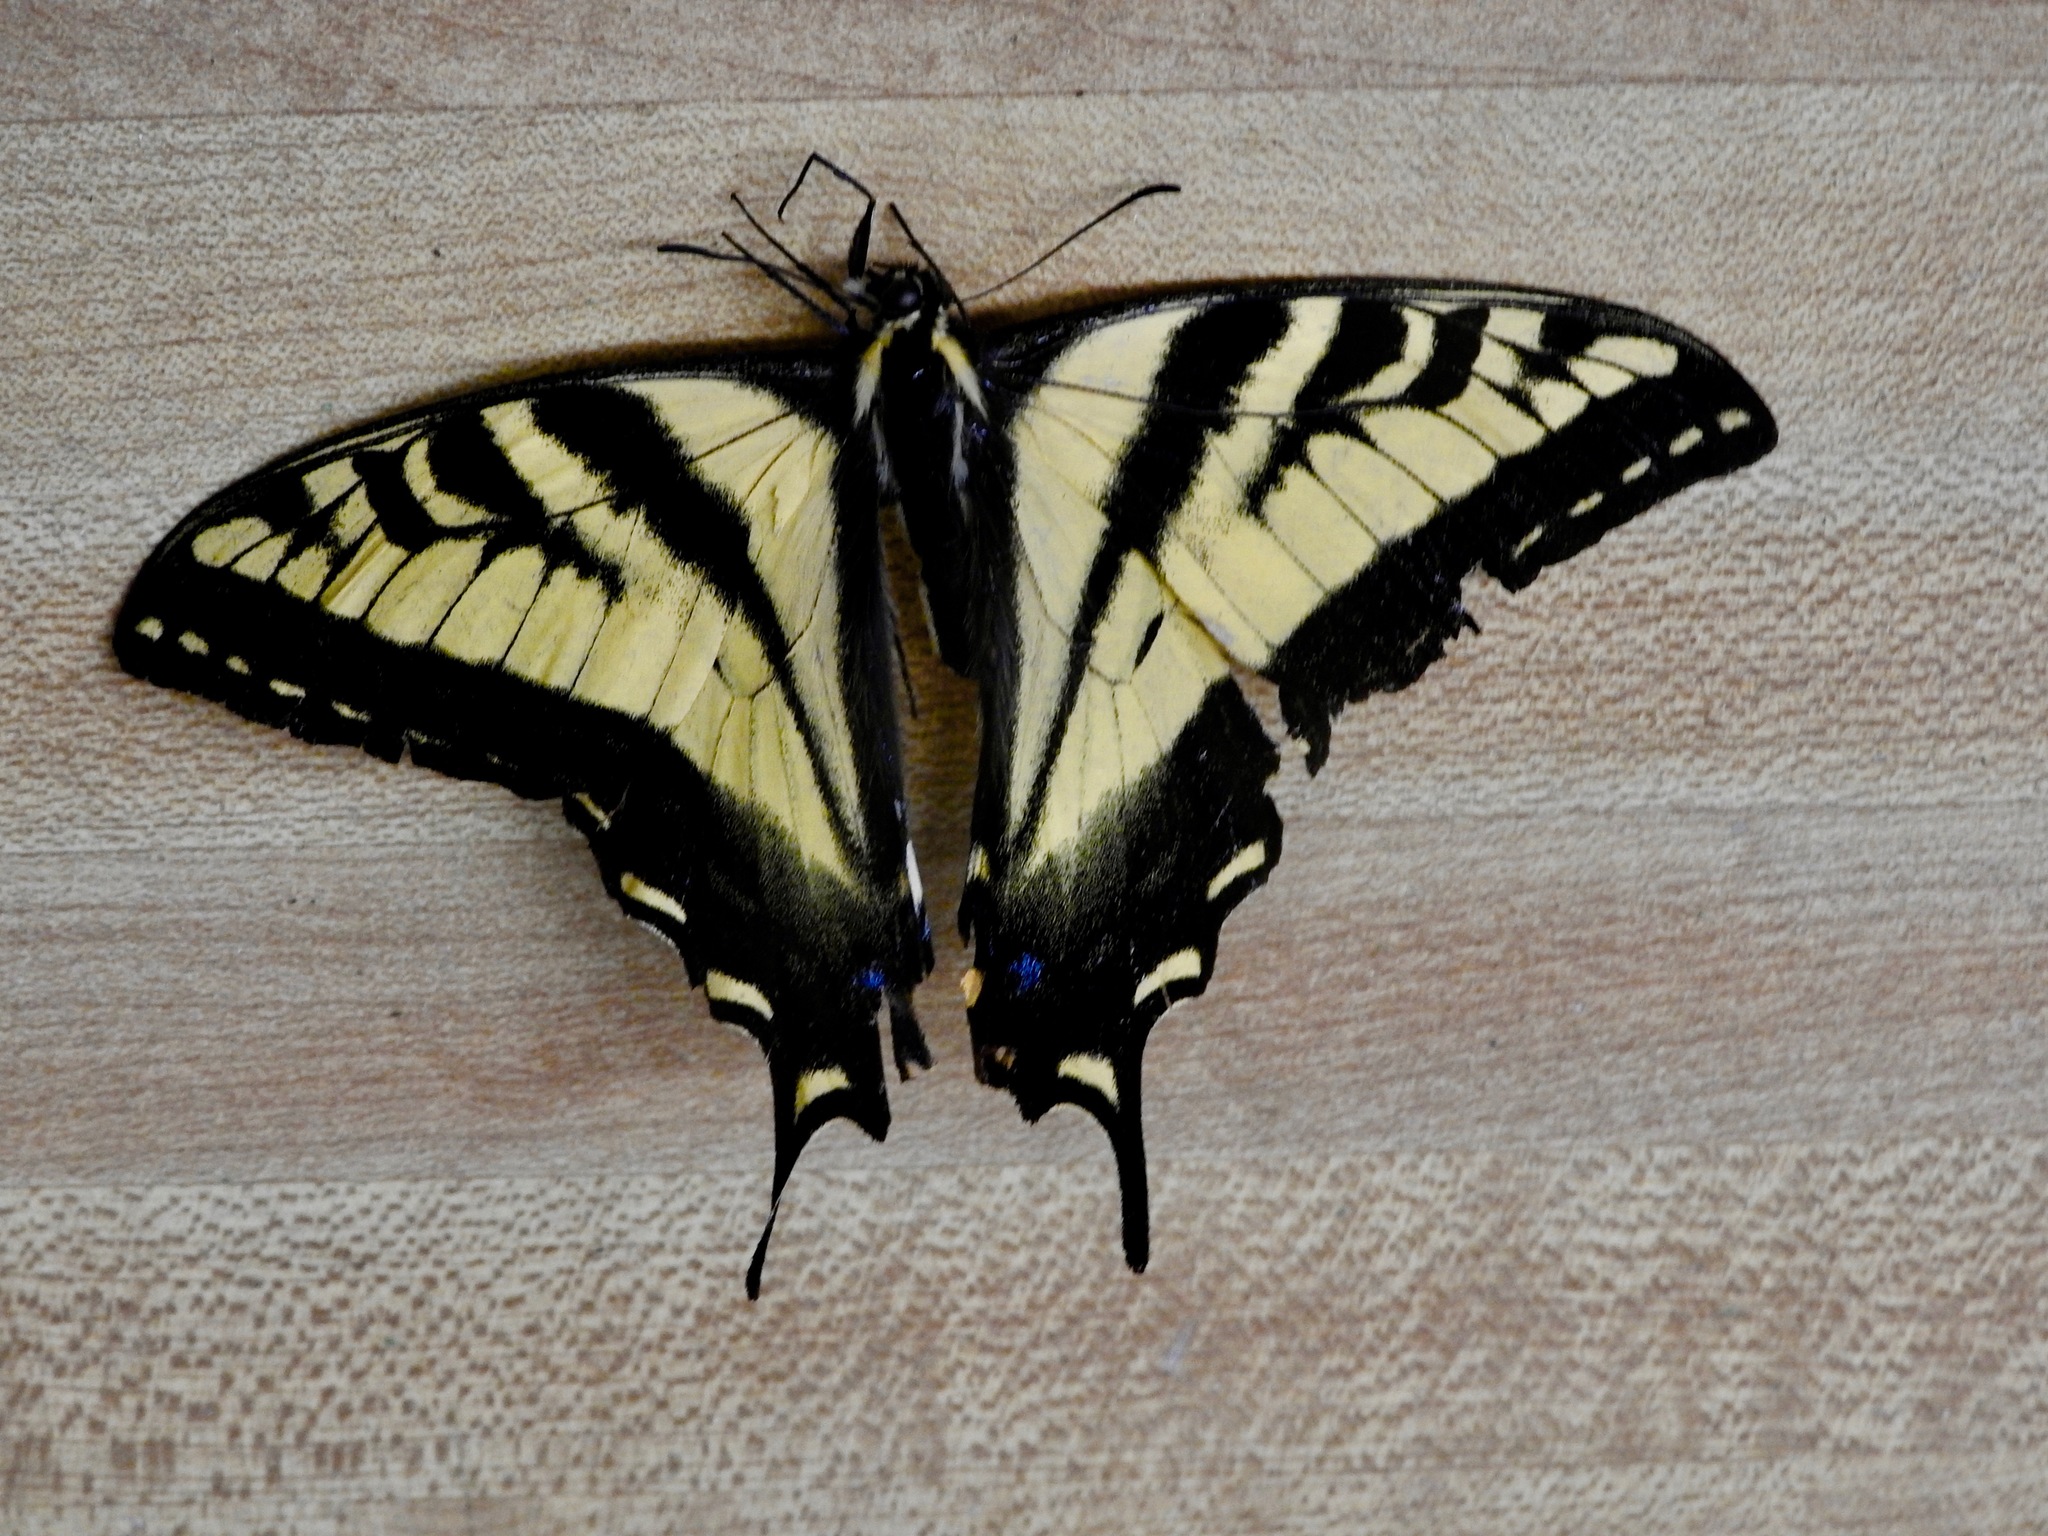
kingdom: Animalia
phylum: Arthropoda
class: Insecta
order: Lepidoptera
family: Papilionidae
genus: Papilio
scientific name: Papilio rutulus
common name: Western tiger swallowtail
